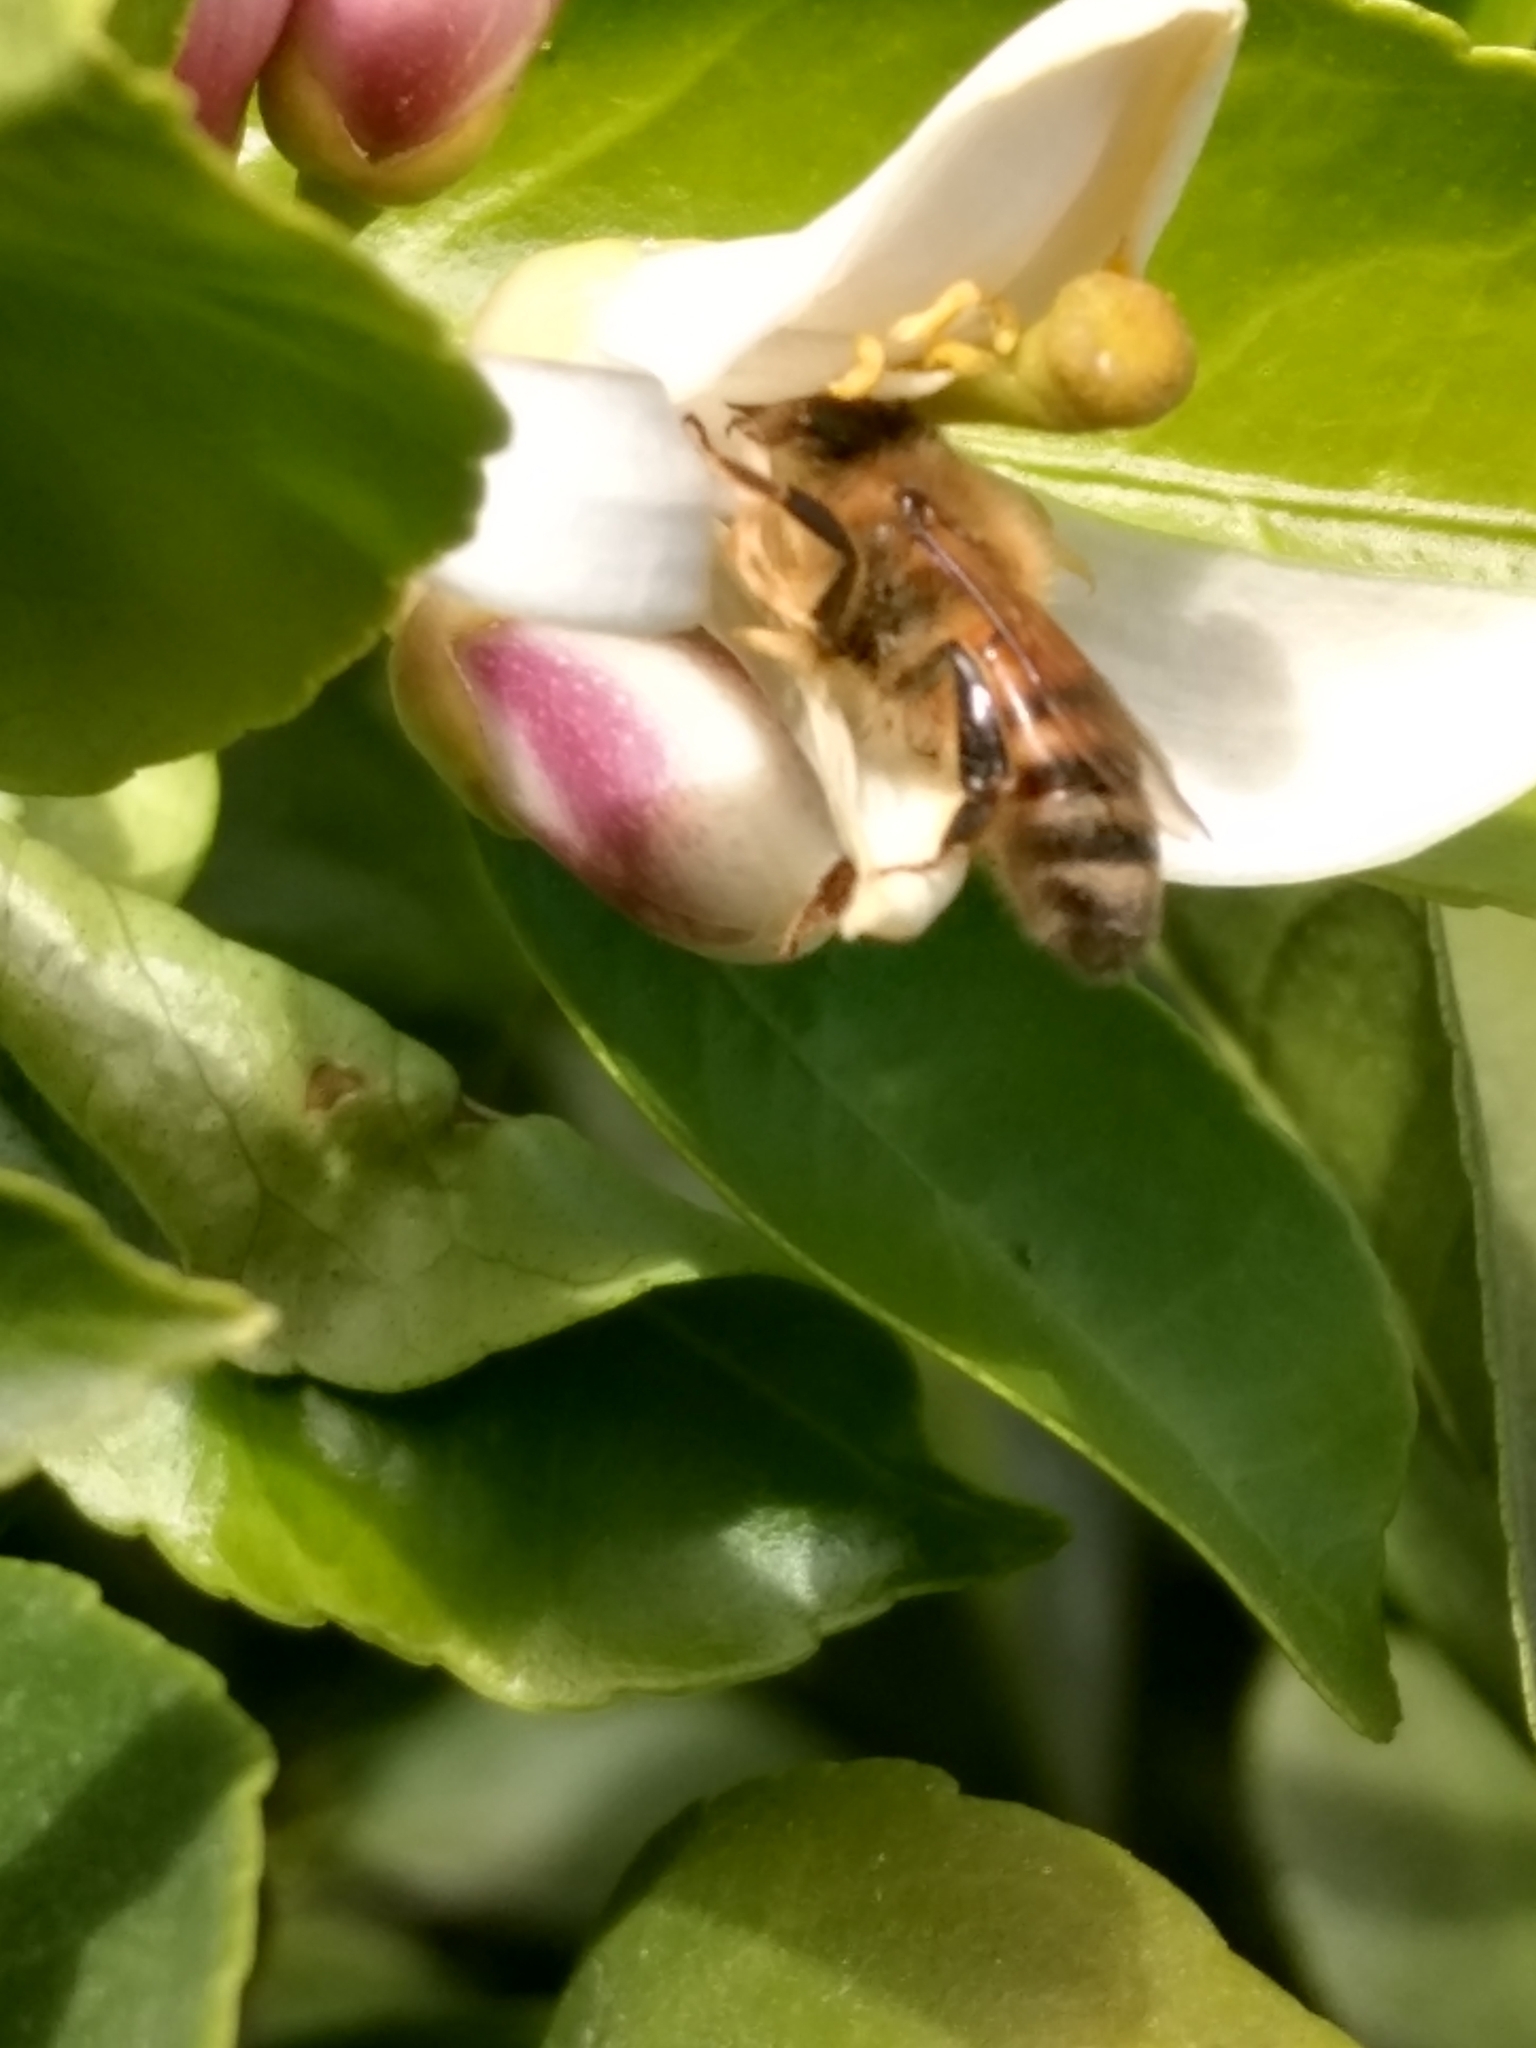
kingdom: Animalia
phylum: Arthropoda
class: Insecta
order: Hymenoptera
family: Apidae
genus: Apis
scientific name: Apis mellifera
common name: Honey bee
